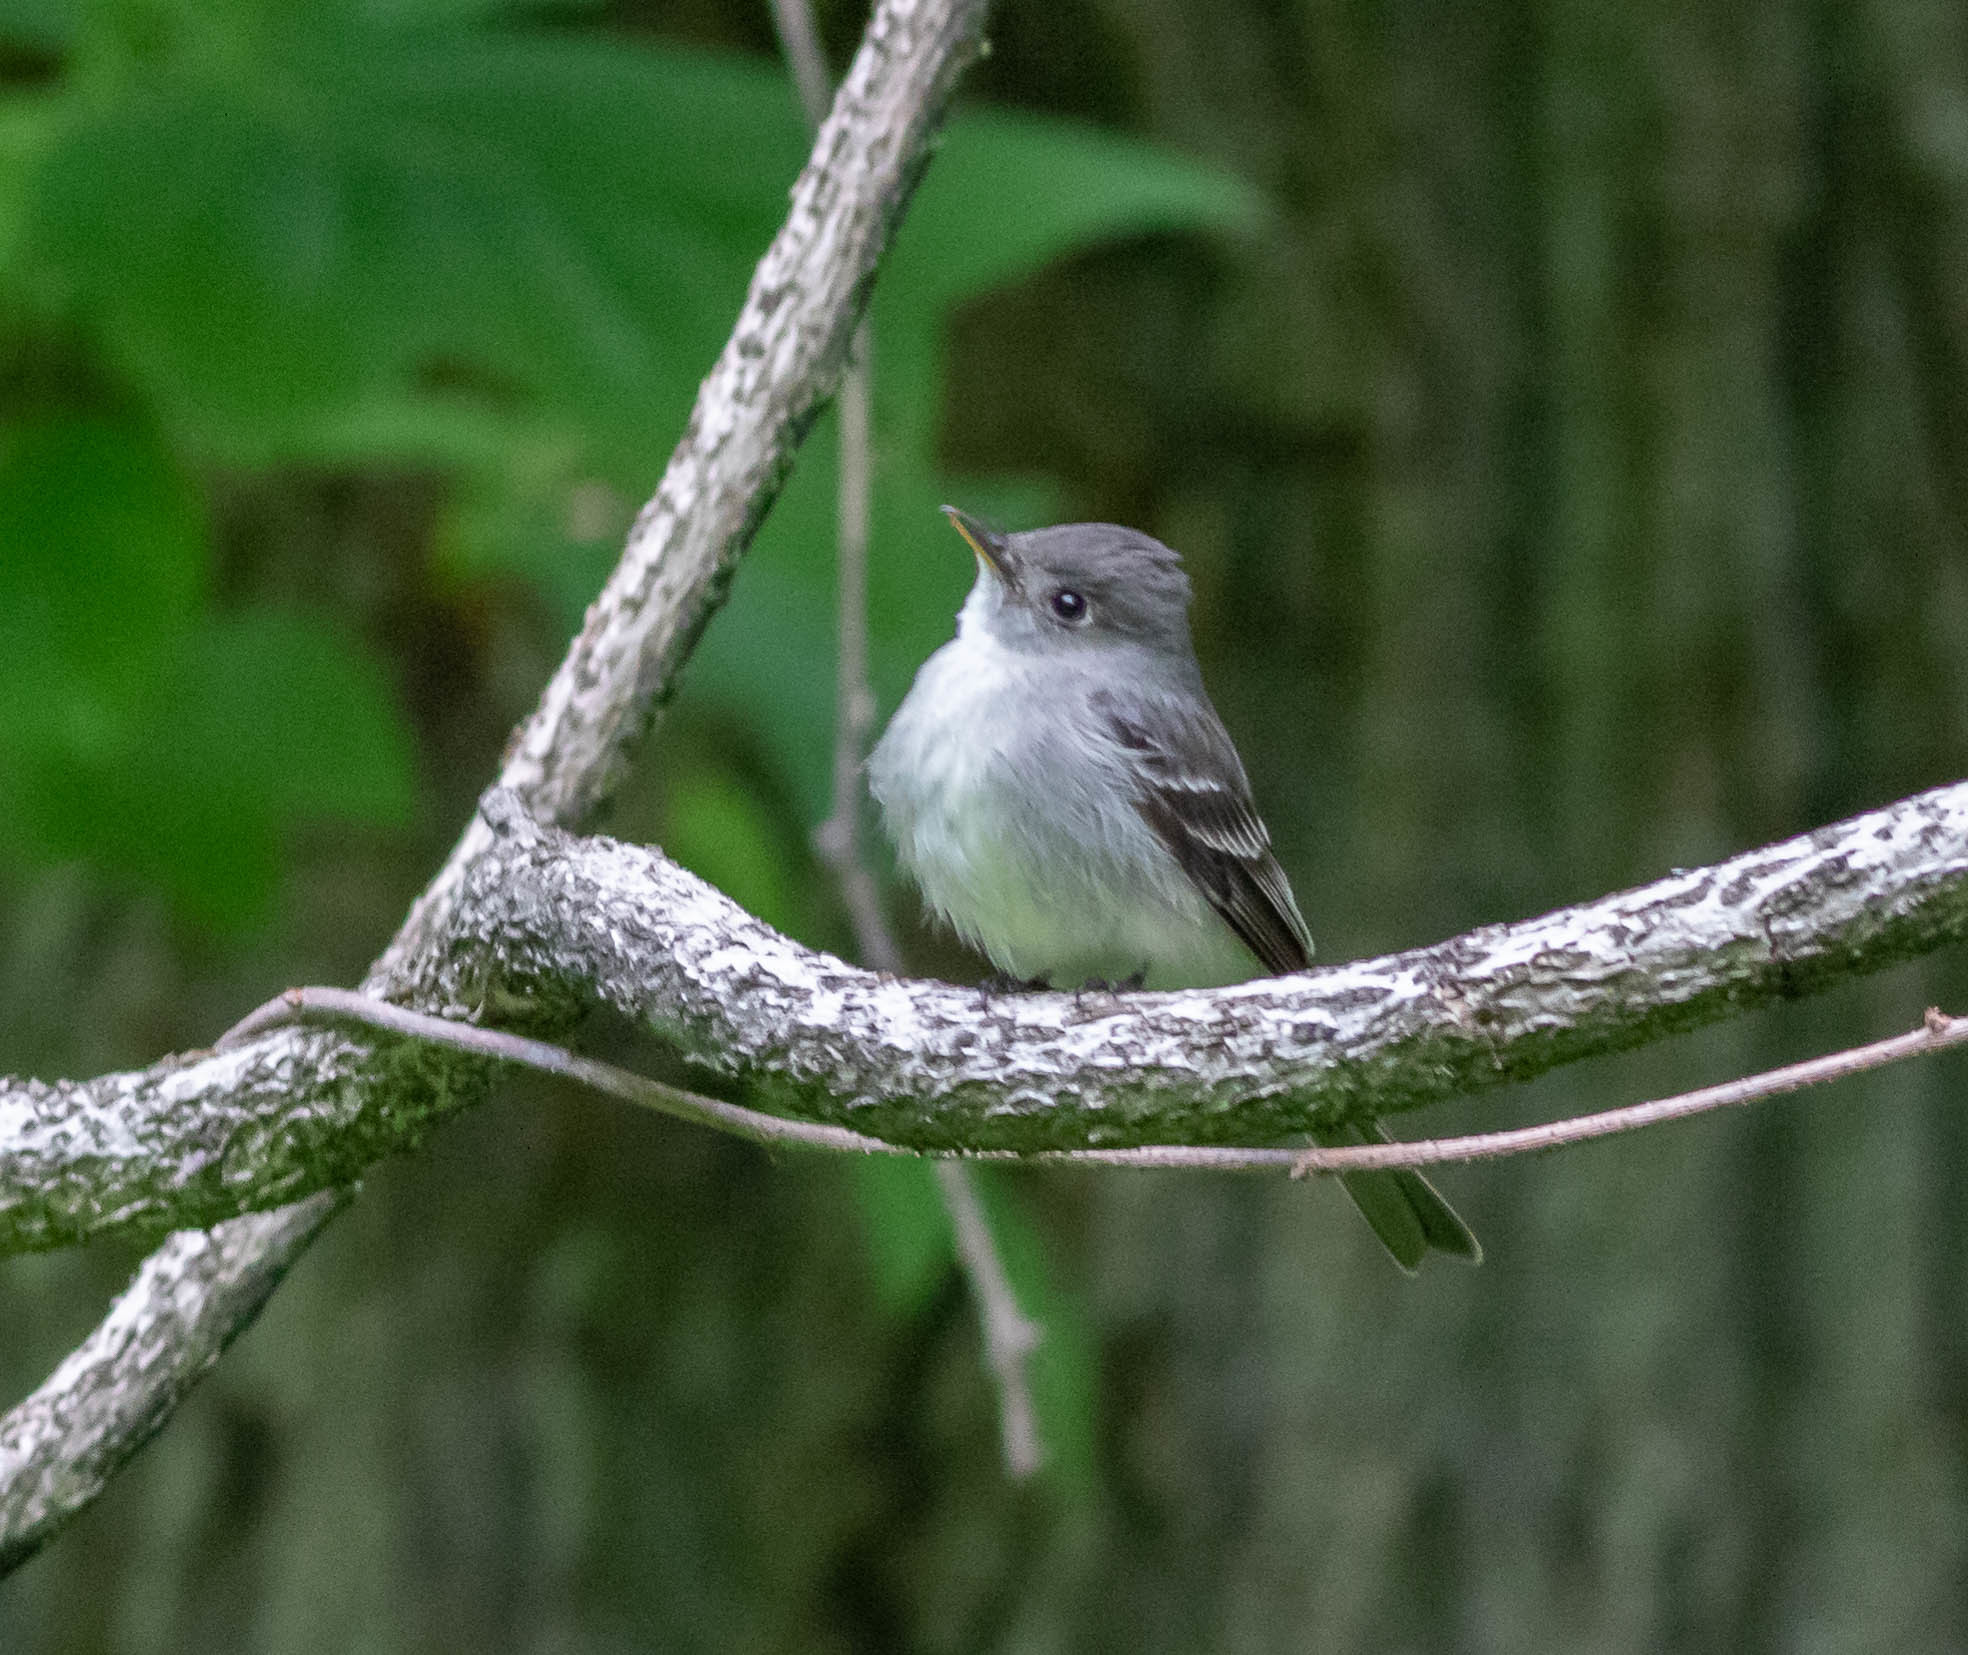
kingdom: Animalia
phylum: Chordata
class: Aves
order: Passeriformes
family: Tyrannidae
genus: Contopus
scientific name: Contopus virens
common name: Eastern wood-pewee
